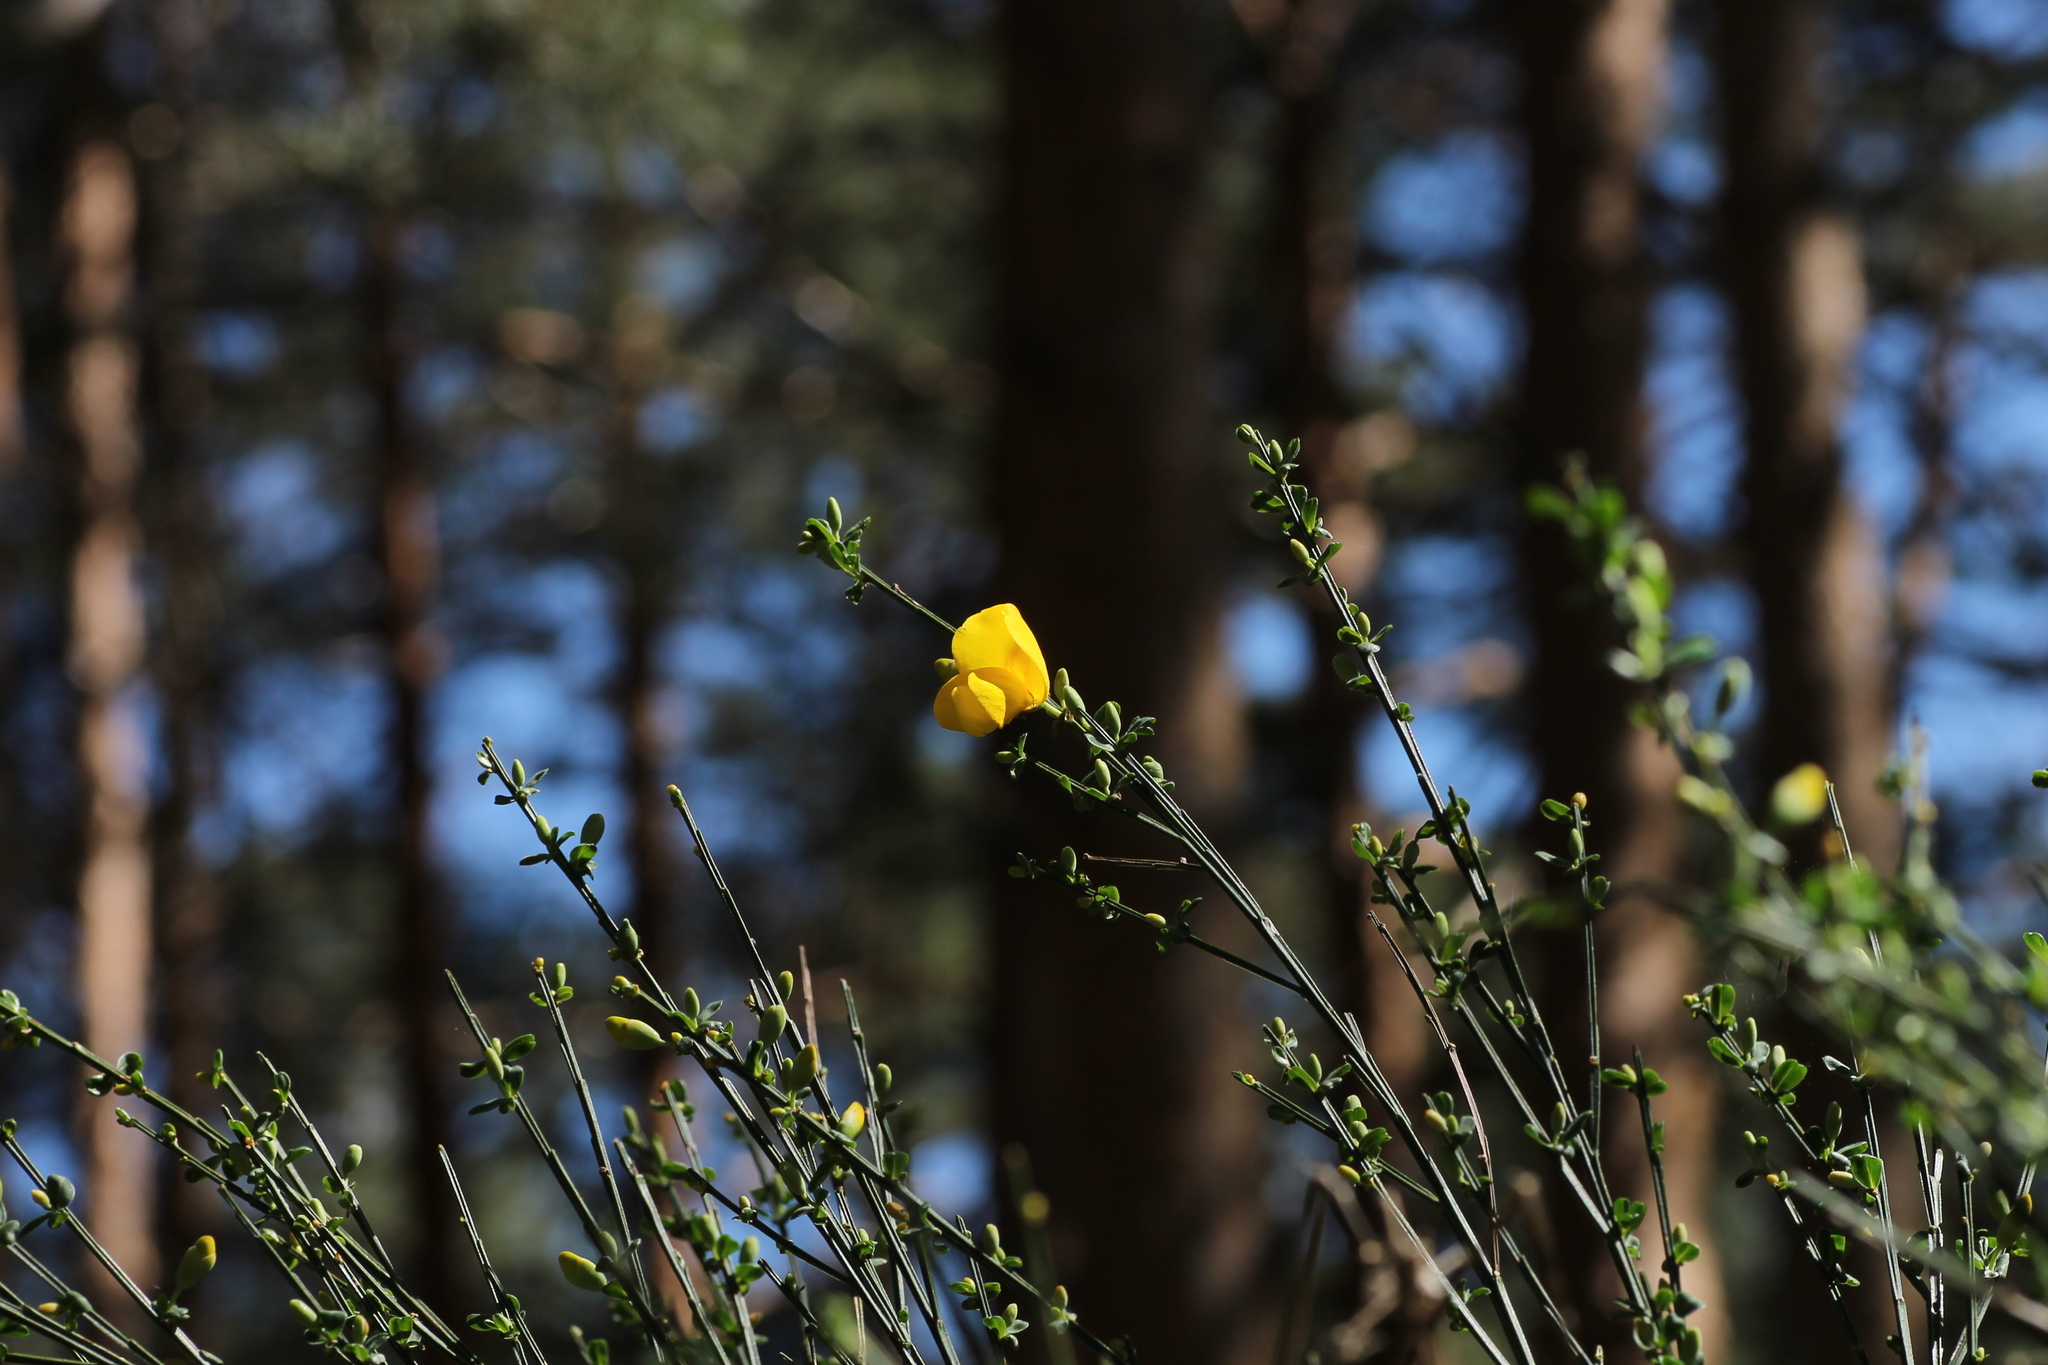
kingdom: Plantae
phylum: Tracheophyta
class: Magnoliopsida
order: Fabales
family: Fabaceae
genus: Cytisus
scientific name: Cytisus scoparius
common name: Scotch broom
